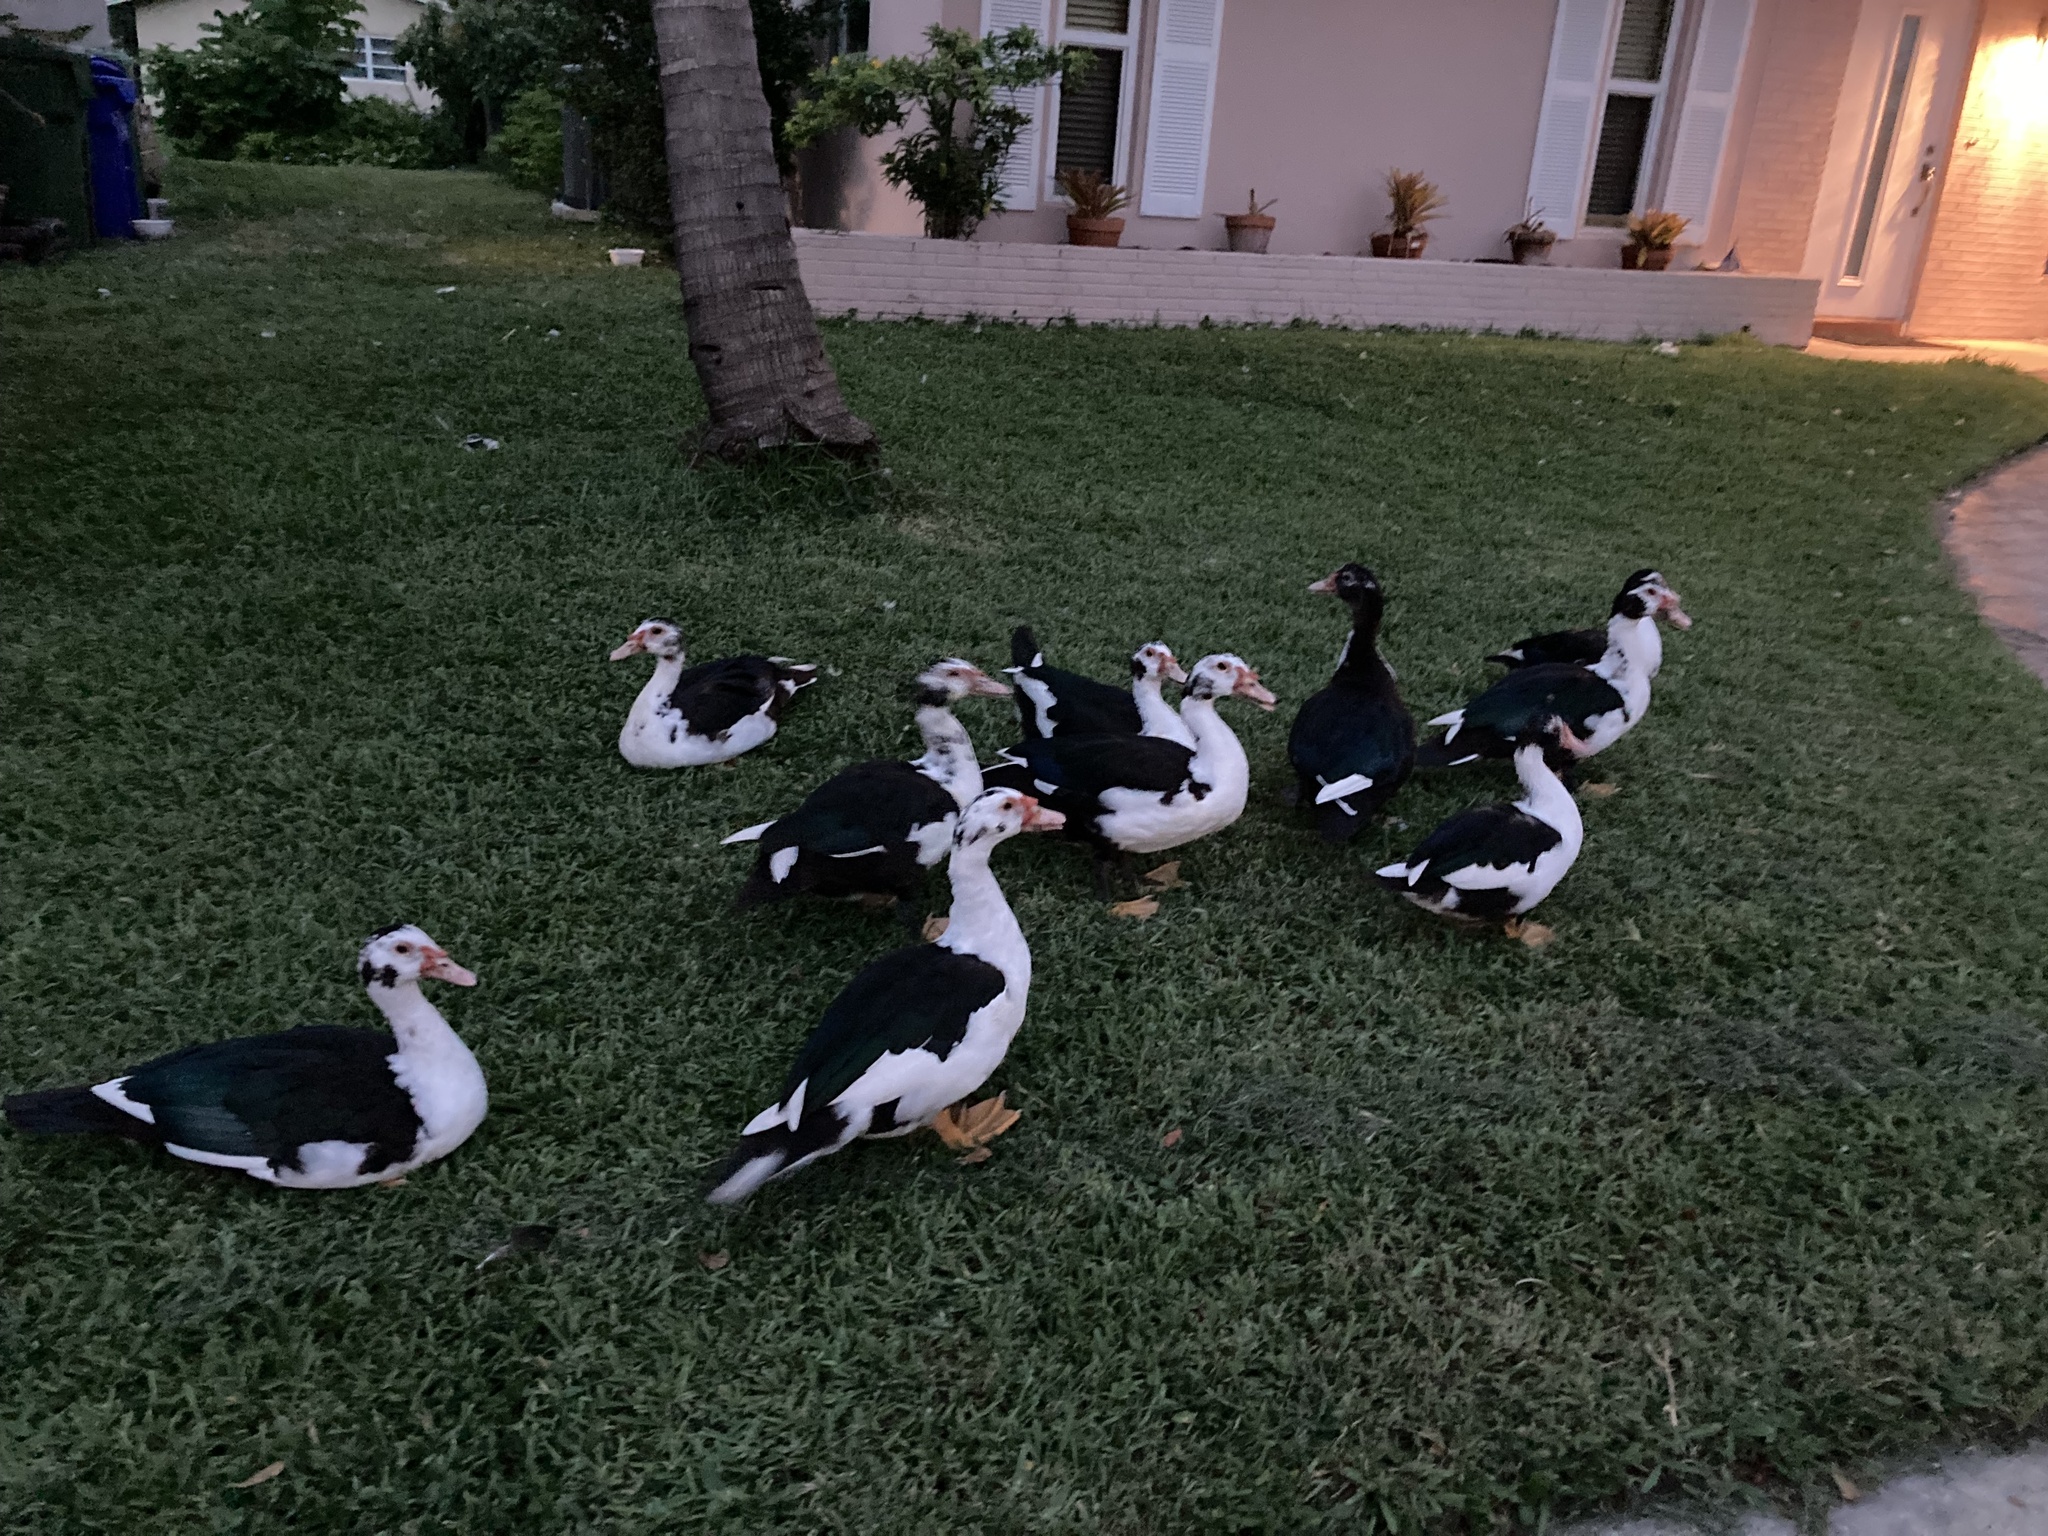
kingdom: Animalia
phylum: Chordata
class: Aves
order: Anseriformes
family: Anatidae
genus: Cairina
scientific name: Cairina moschata
